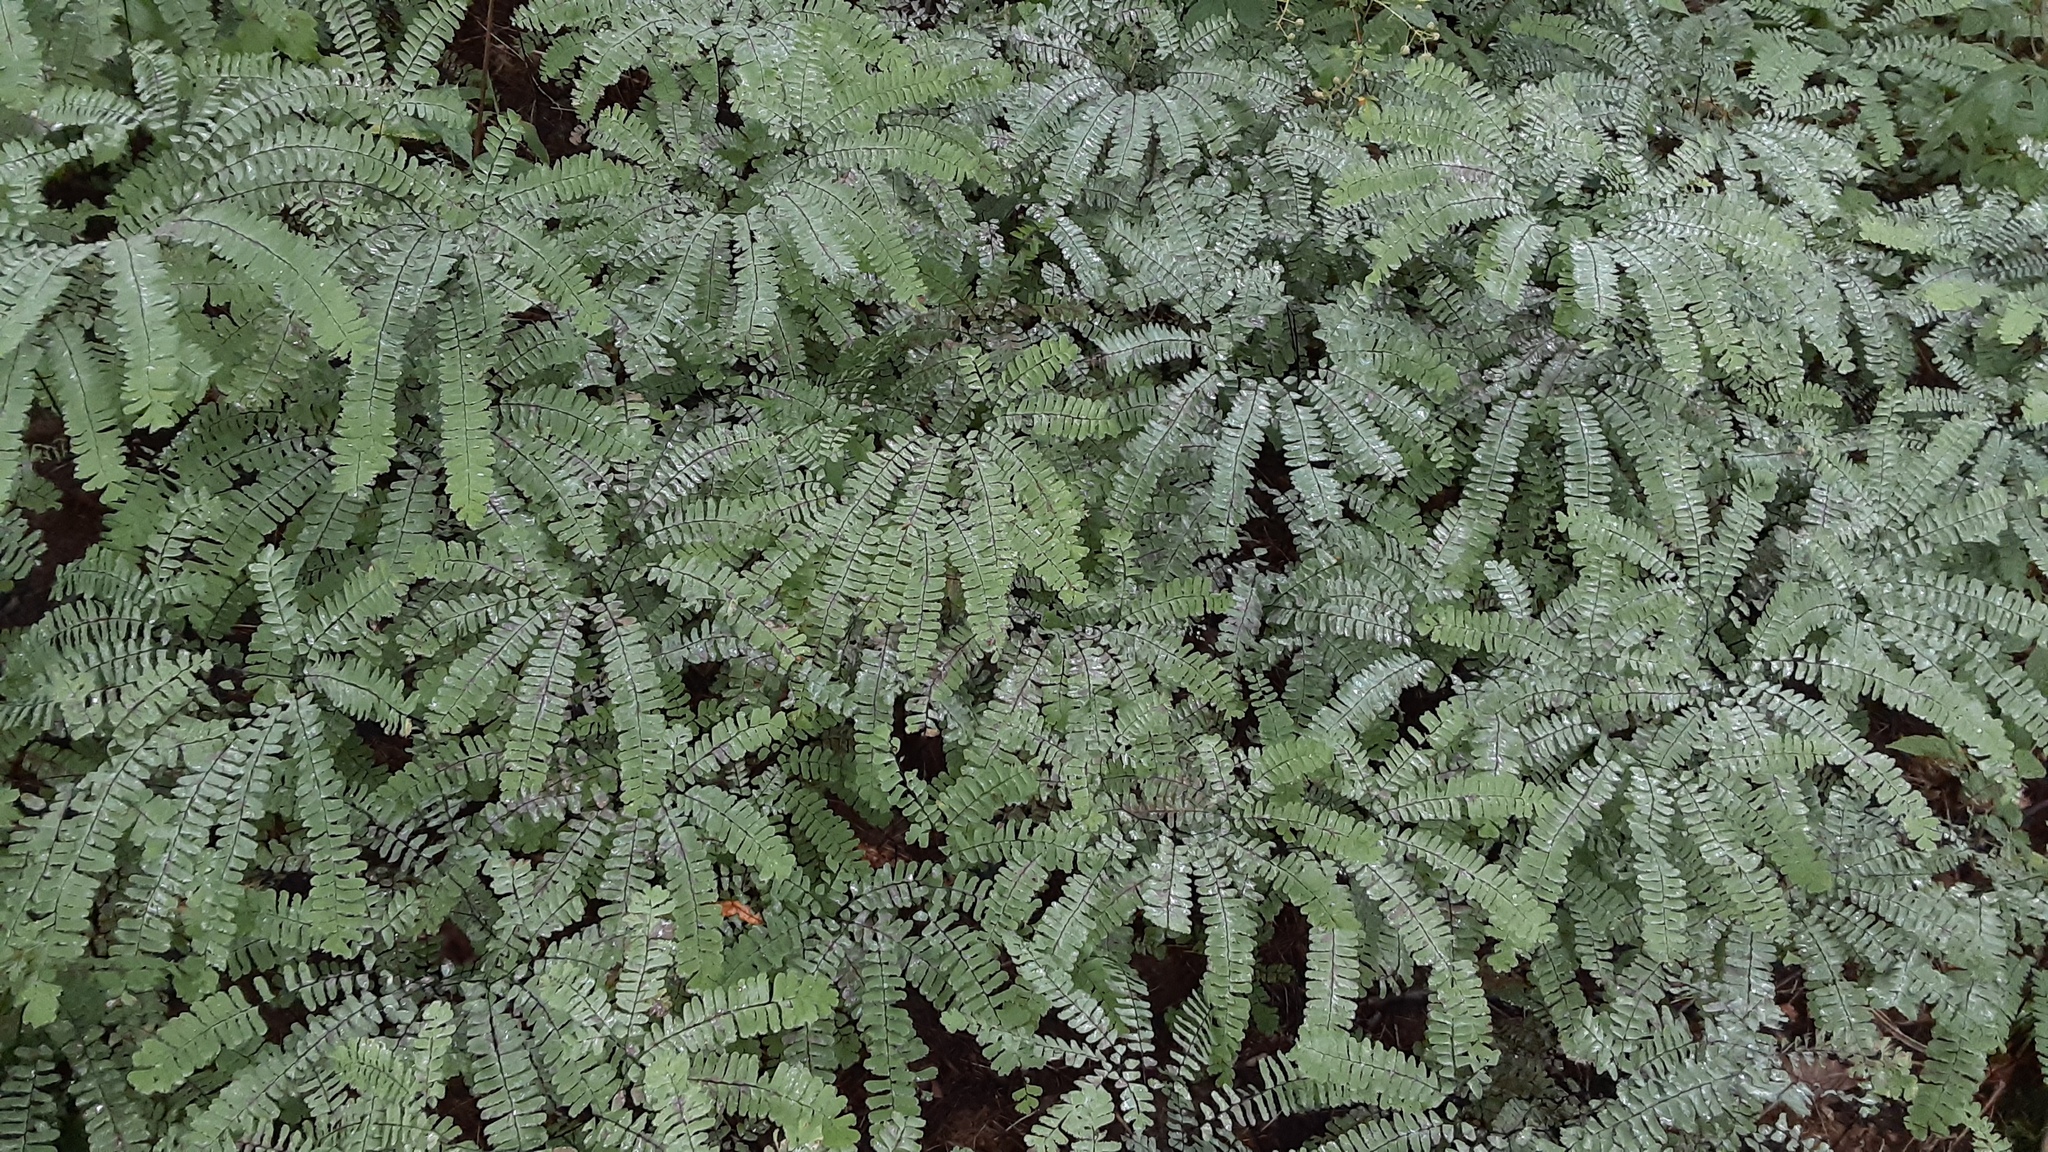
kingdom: Plantae
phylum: Tracheophyta
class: Polypodiopsida
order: Polypodiales
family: Pteridaceae
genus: Adiantum
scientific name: Adiantum pedatum
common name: Five-finger fern
